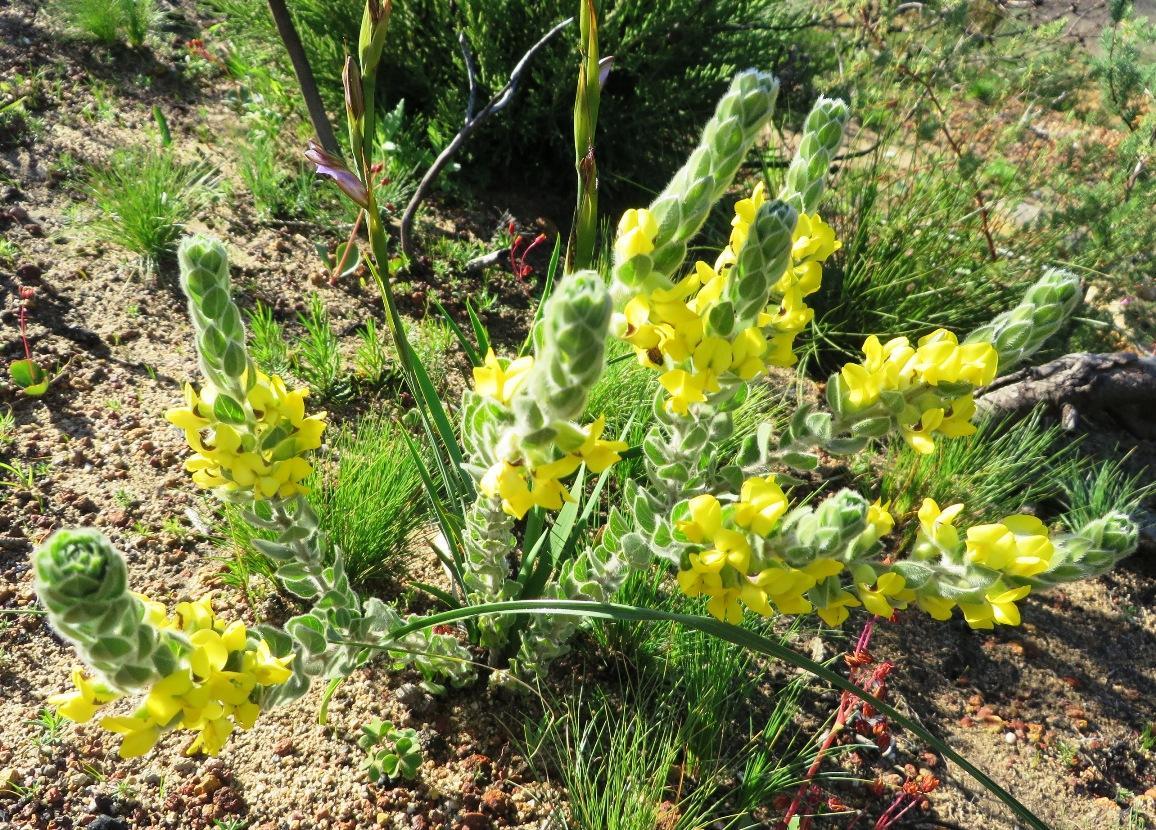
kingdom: Plantae
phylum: Tracheophyta
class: Magnoliopsida
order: Fabales
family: Fabaceae
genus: Xiphotheca
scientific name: Xiphotheca tecta
